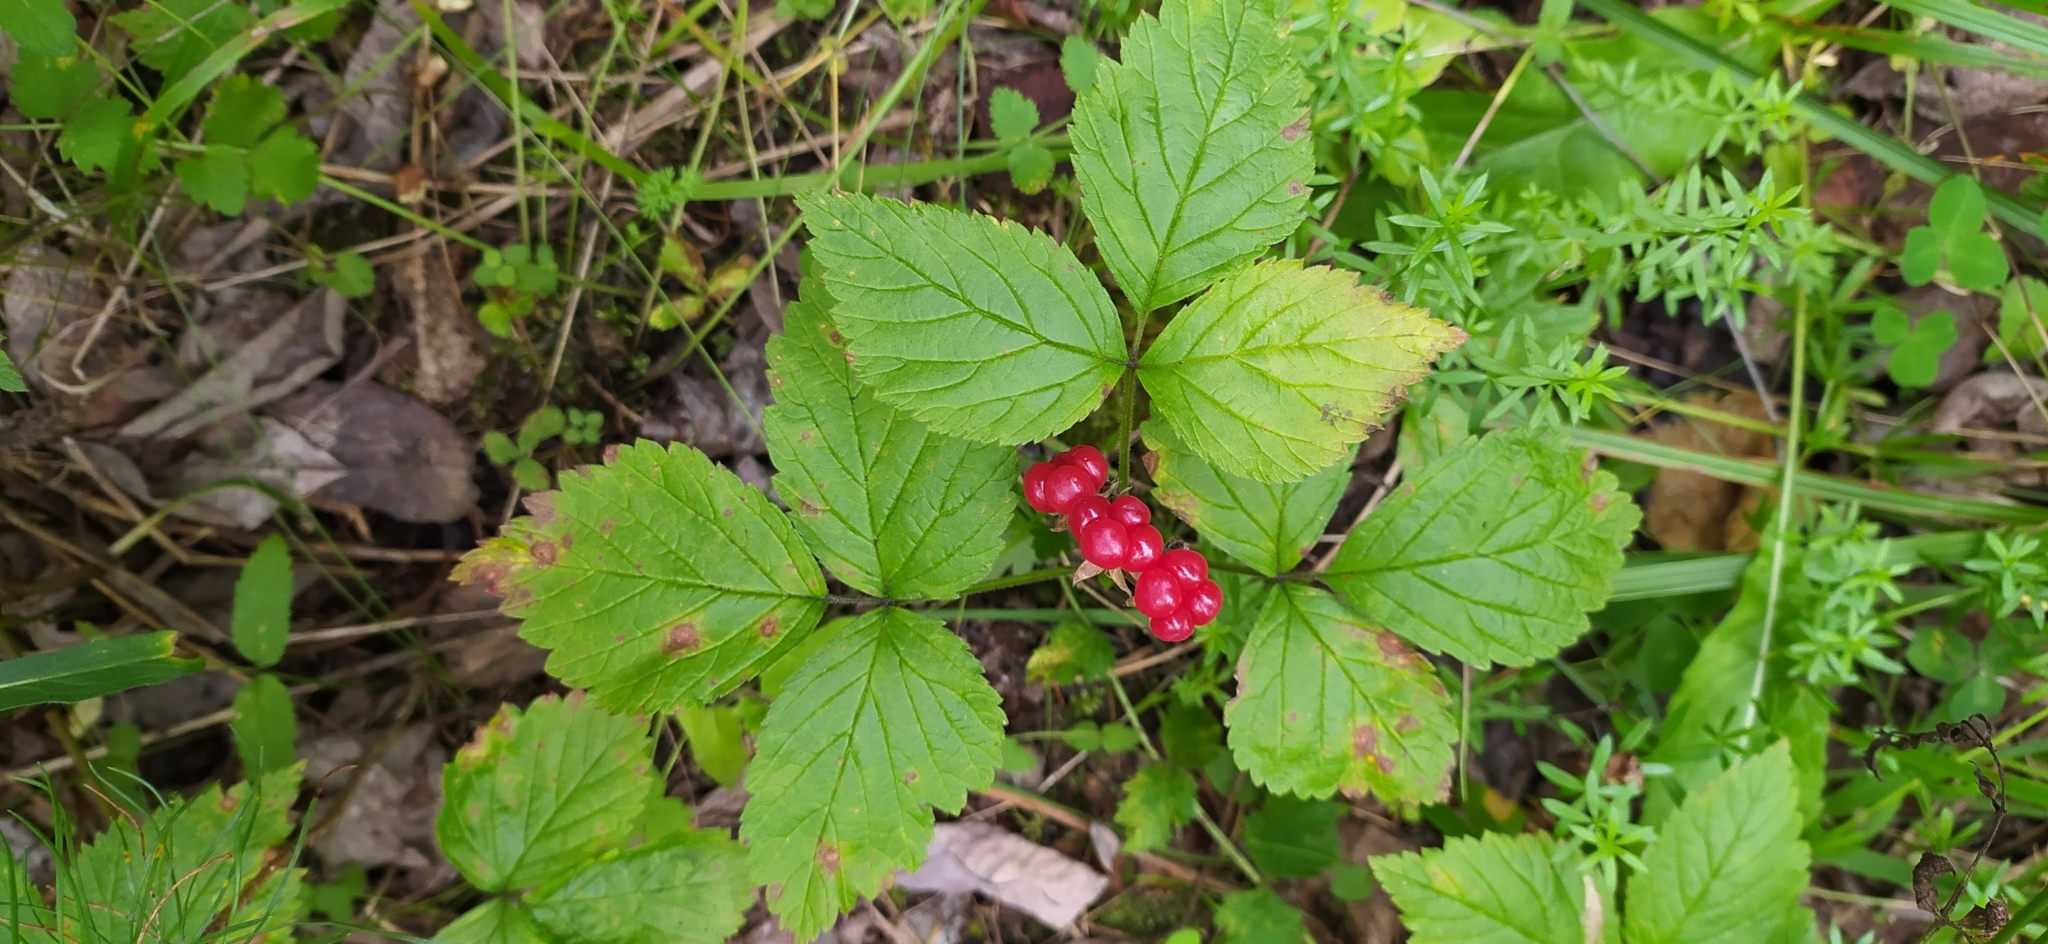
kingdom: Plantae
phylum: Tracheophyta
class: Magnoliopsida
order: Rosales
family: Rosaceae
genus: Rubus
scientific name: Rubus saxatilis
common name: Stone bramble
